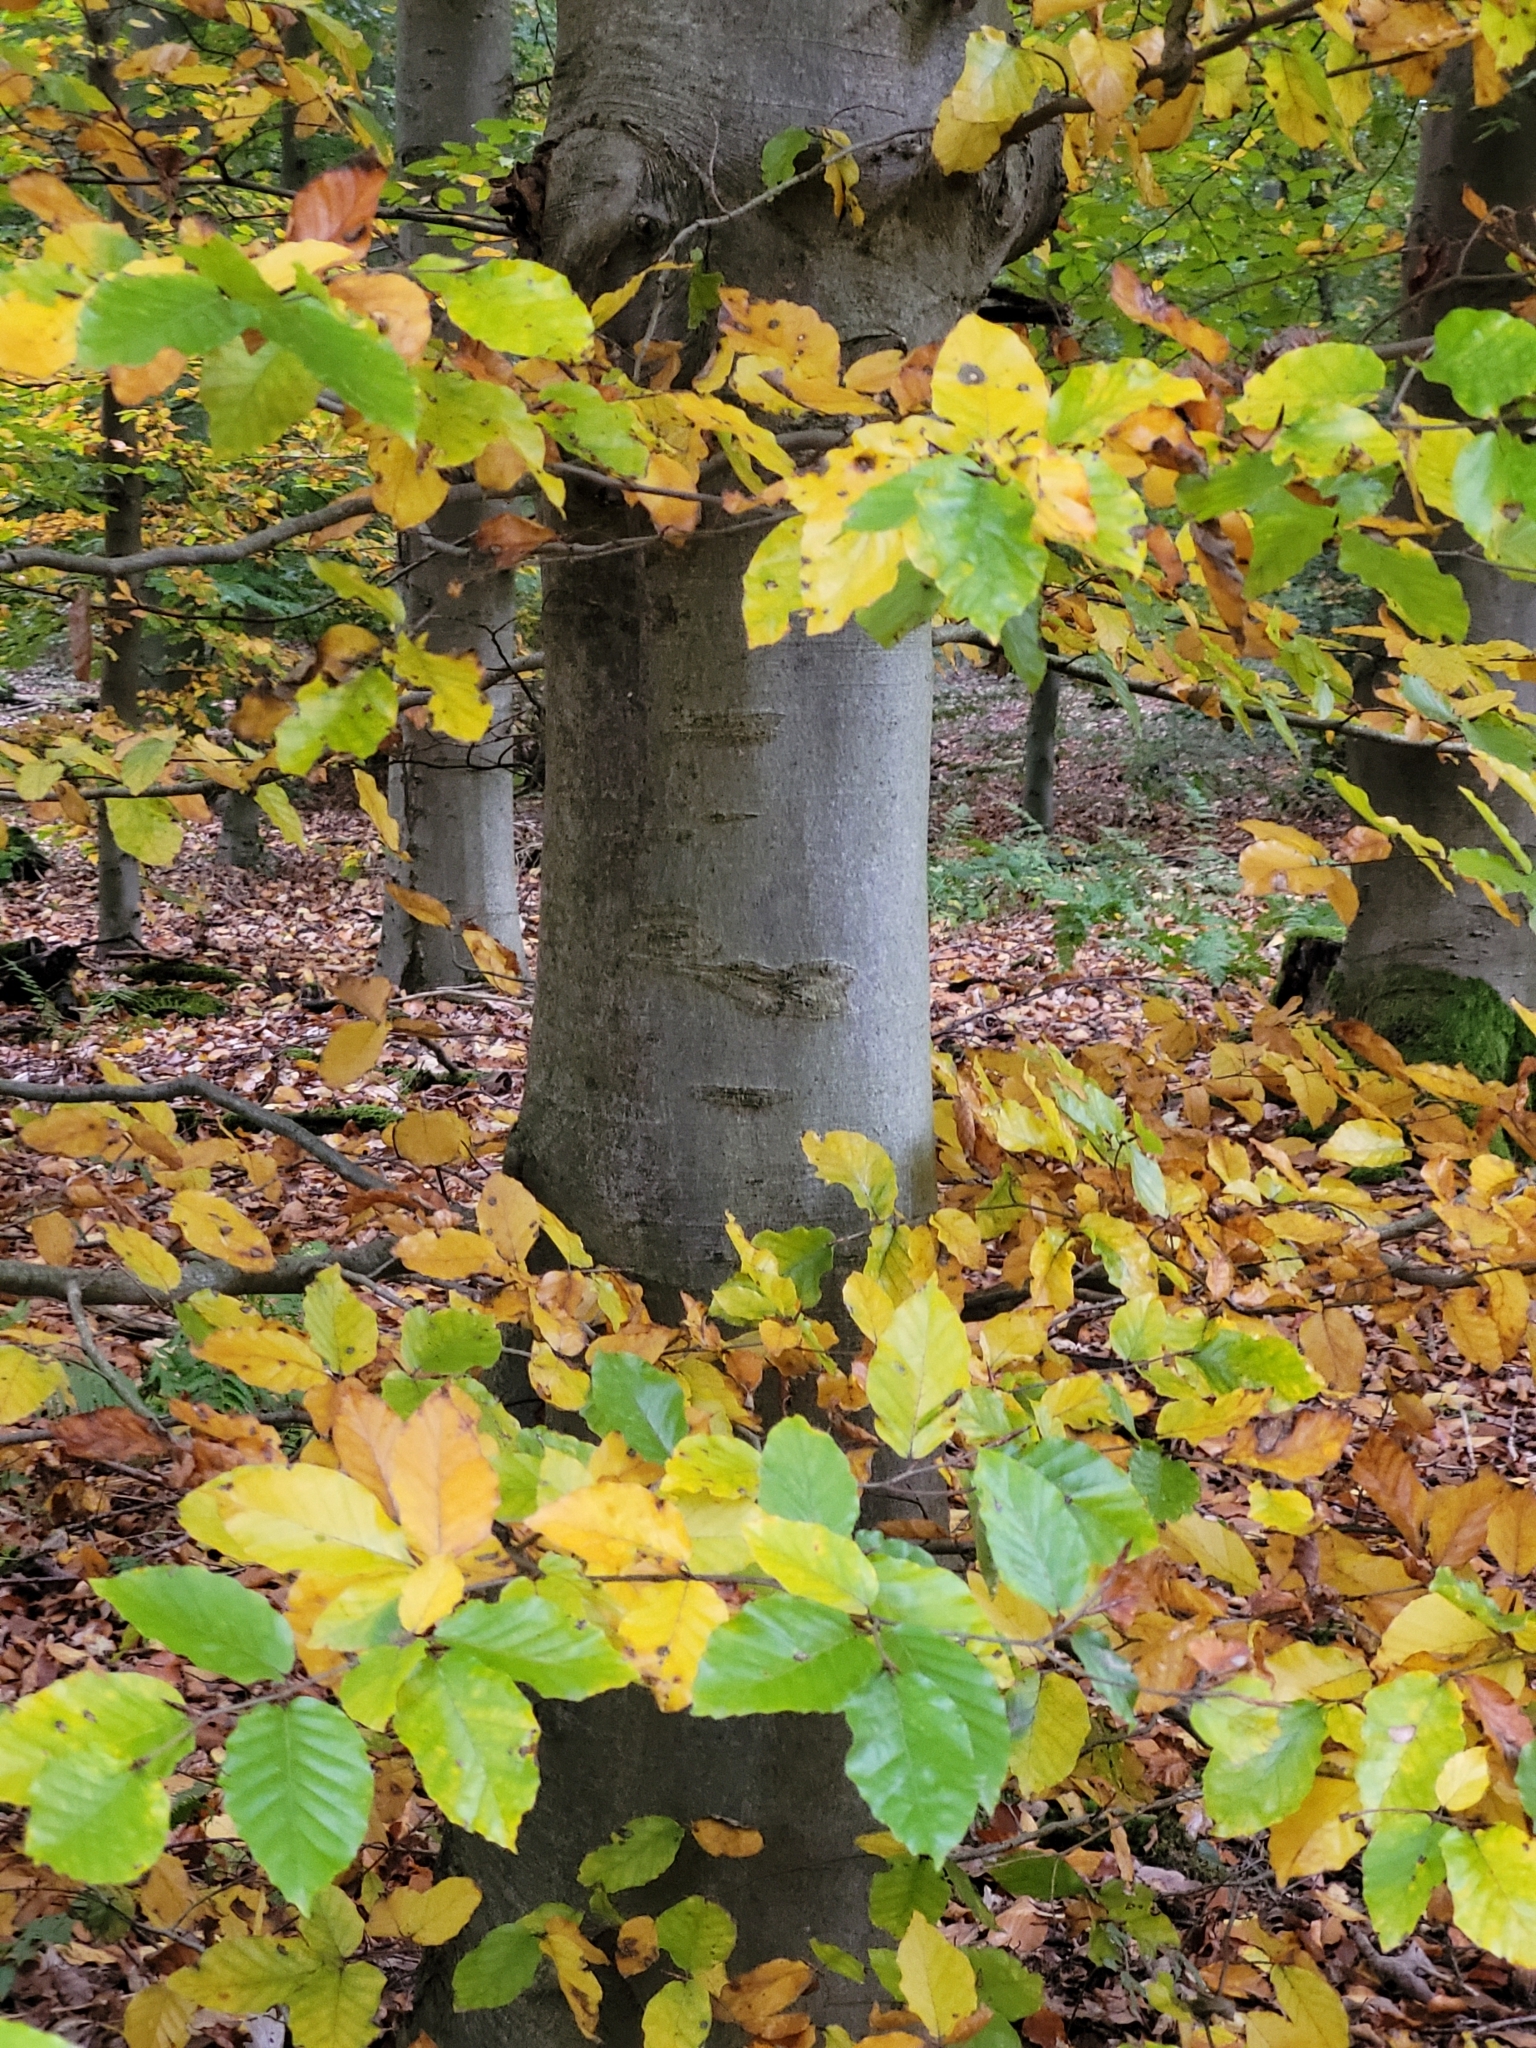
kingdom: Plantae
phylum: Tracheophyta
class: Magnoliopsida
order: Fagales
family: Fagaceae
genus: Fagus
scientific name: Fagus sylvatica
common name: Beech
